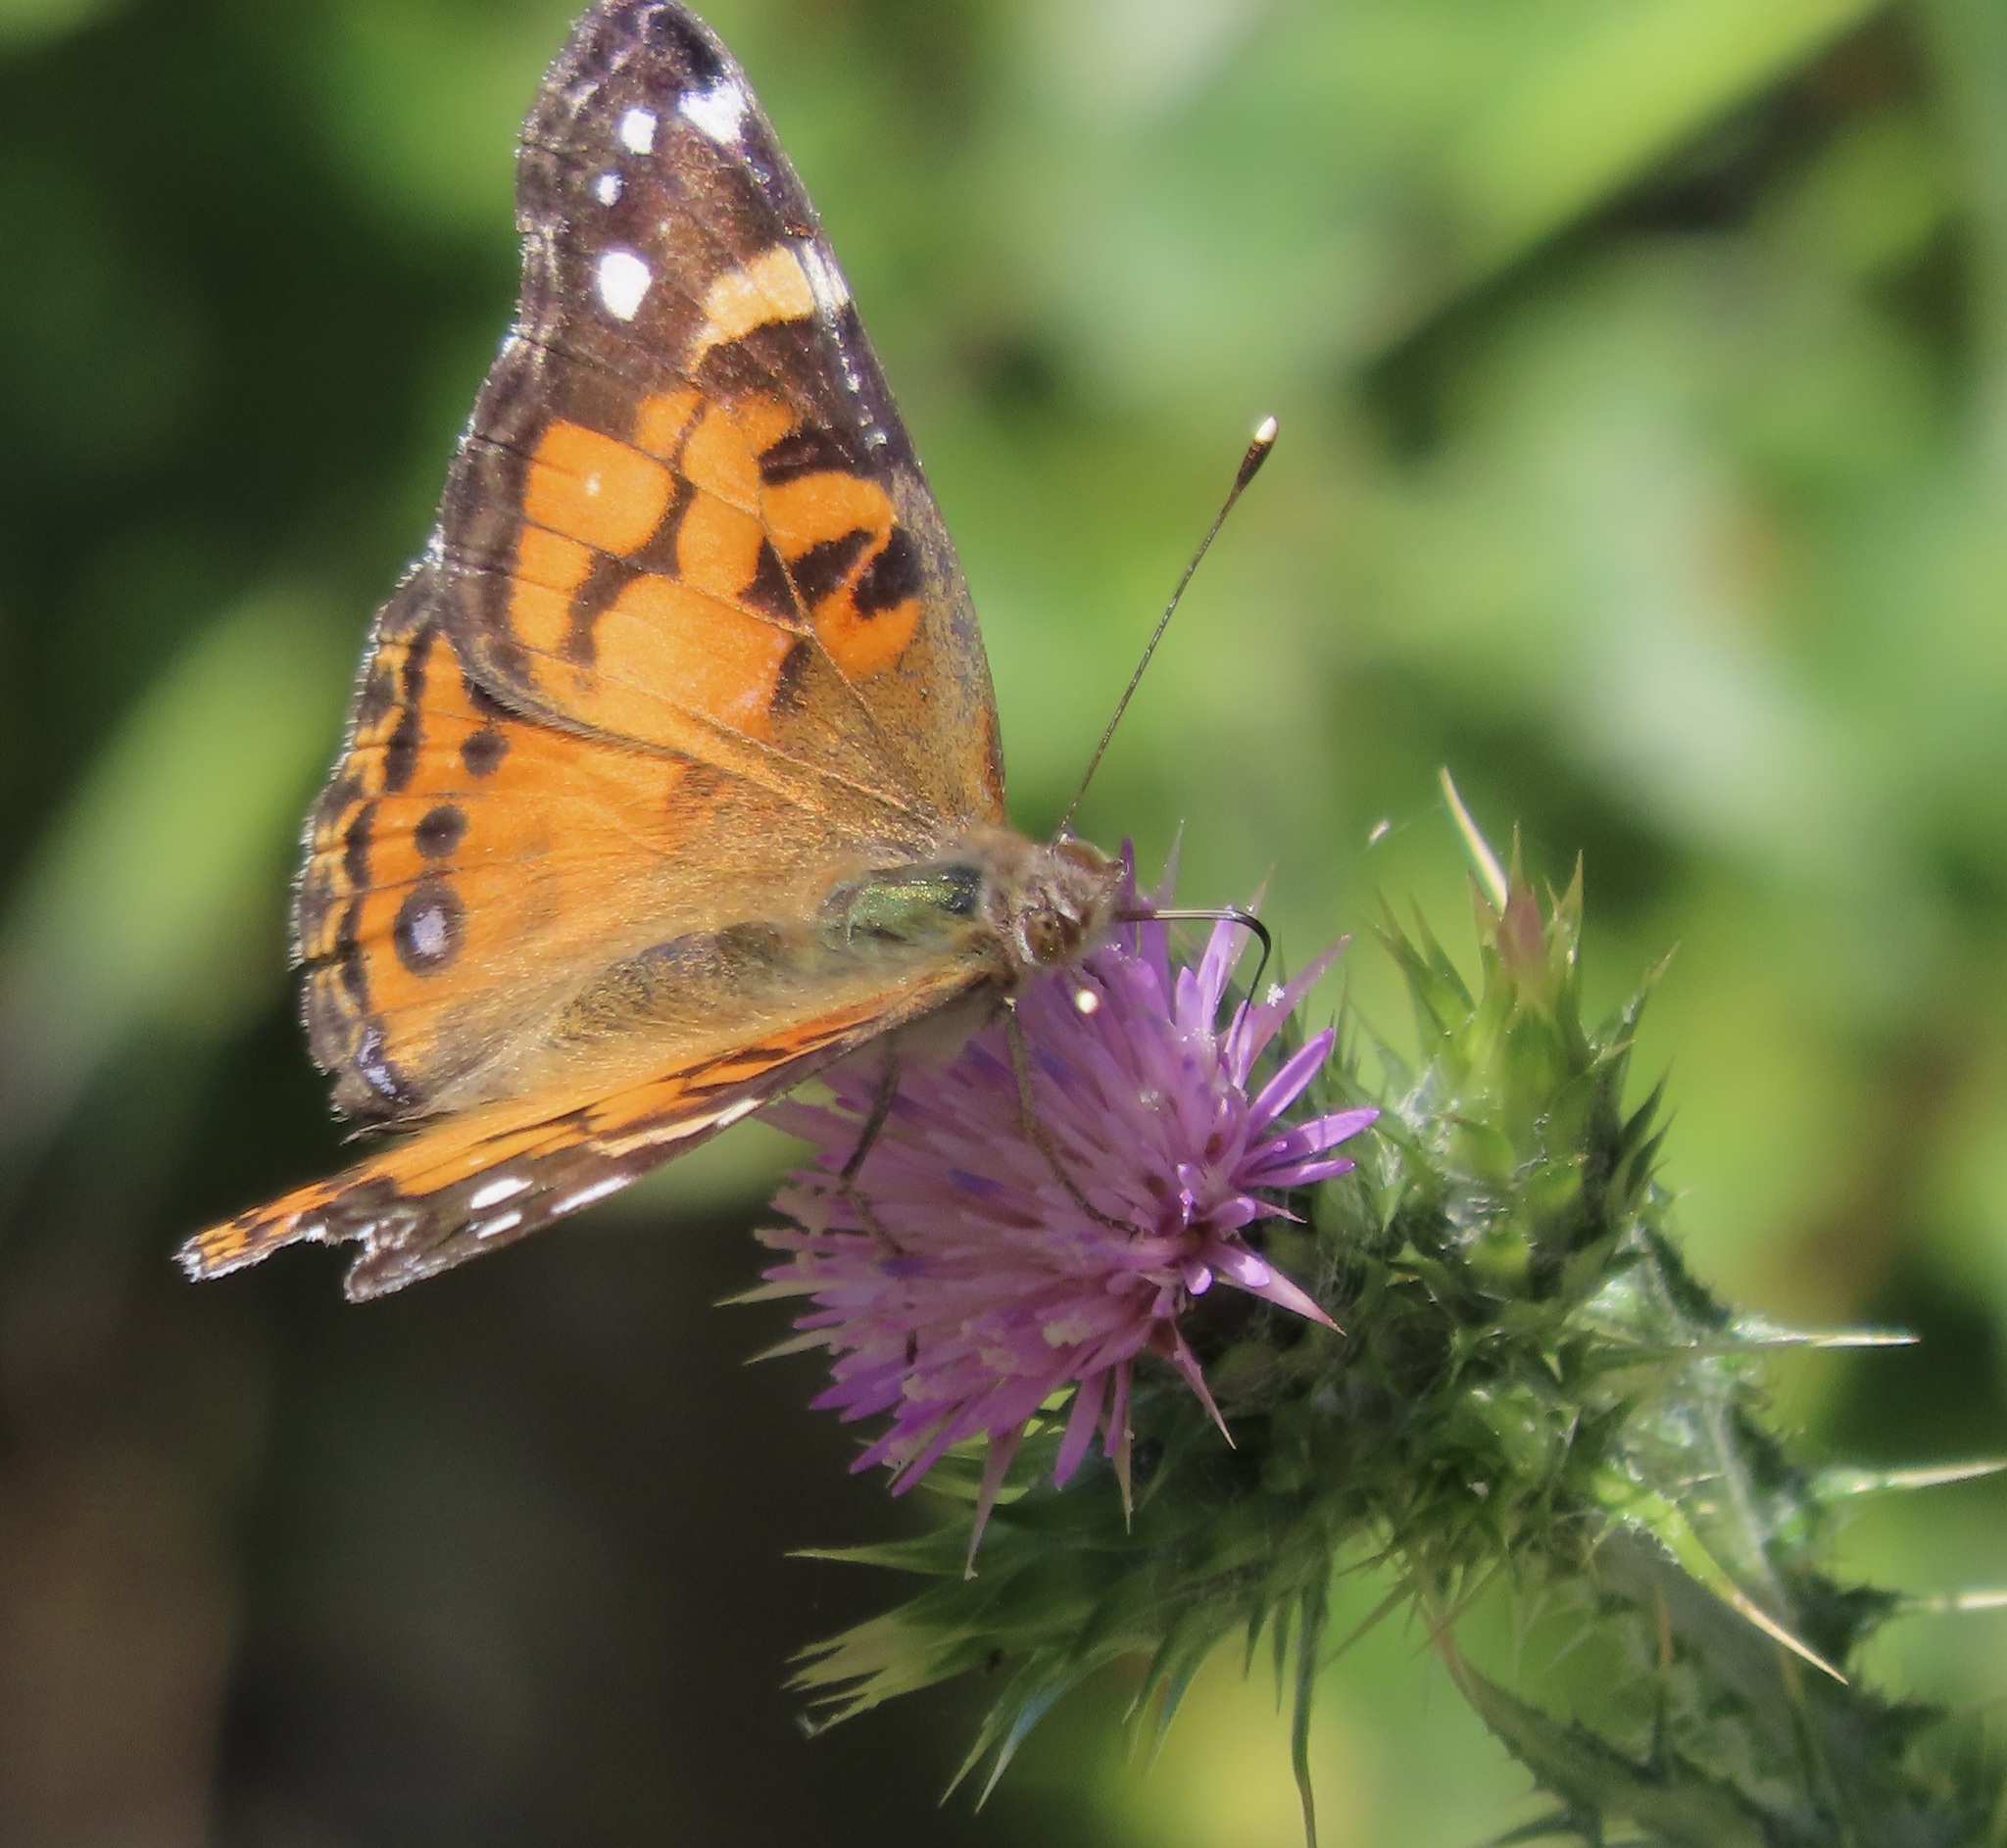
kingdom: Animalia
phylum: Arthropoda
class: Insecta
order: Lepidoptera
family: Nymphalidae
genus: Vanessa
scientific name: Vanessa virginiensis
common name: American lady
